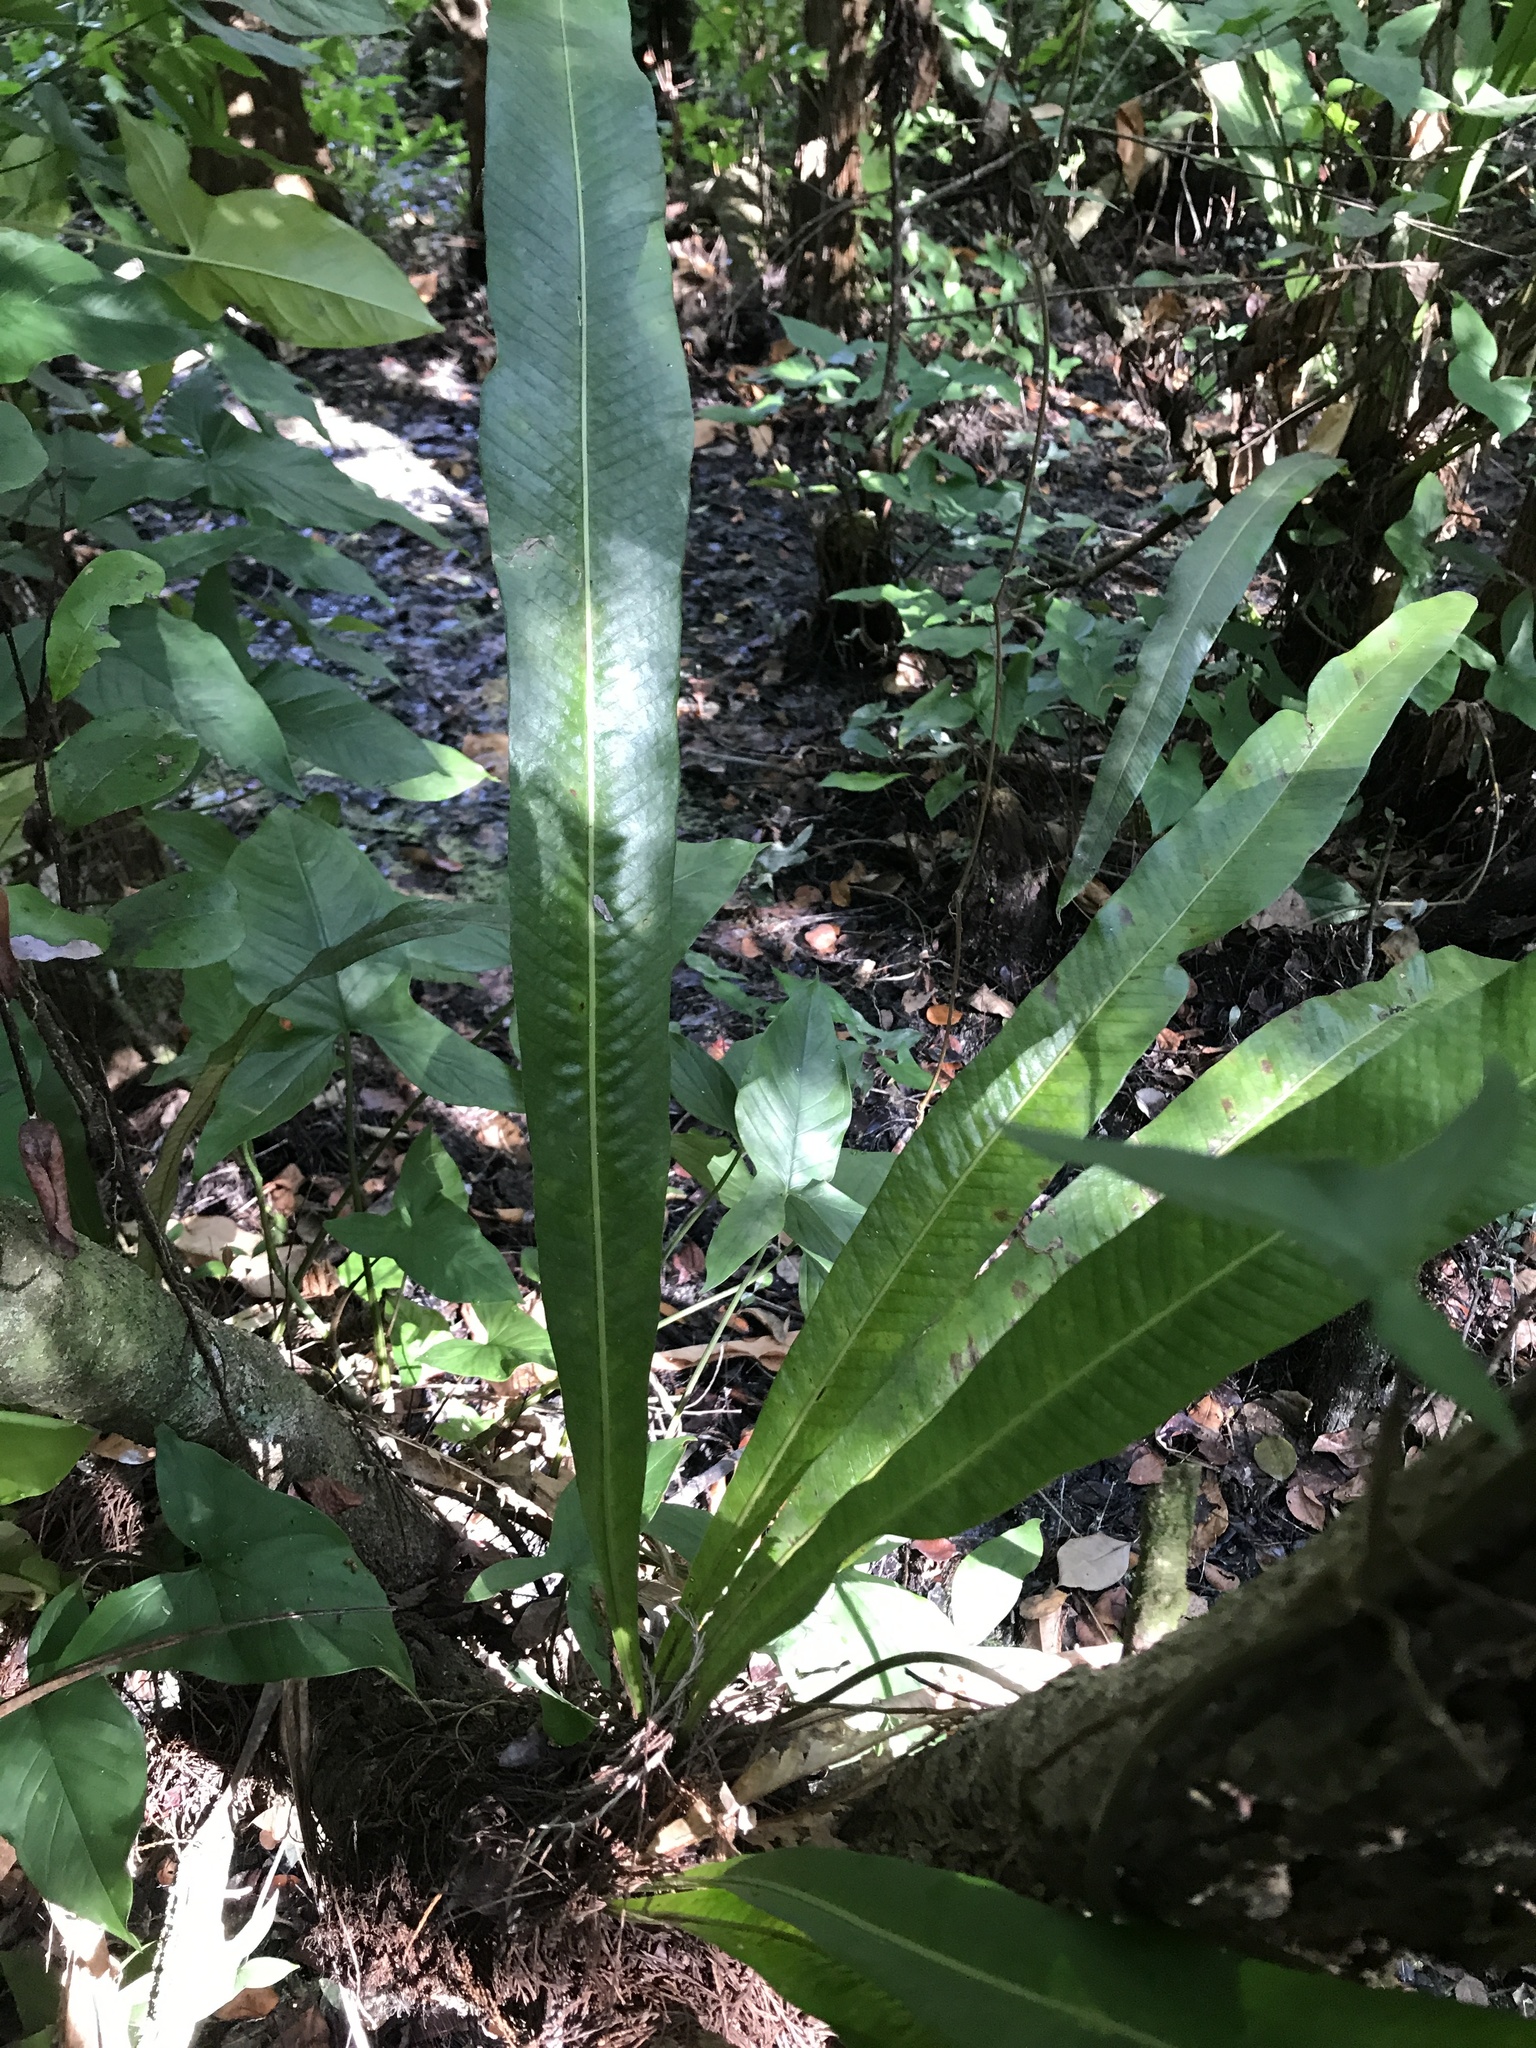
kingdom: Plantae
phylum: Tracheophyta
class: Polypodiopsida
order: Polypodiales
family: Polypodiaceae
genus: Campyloneurum
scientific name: Campyloneurum phyllitidis
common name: Cow-tongue fern
